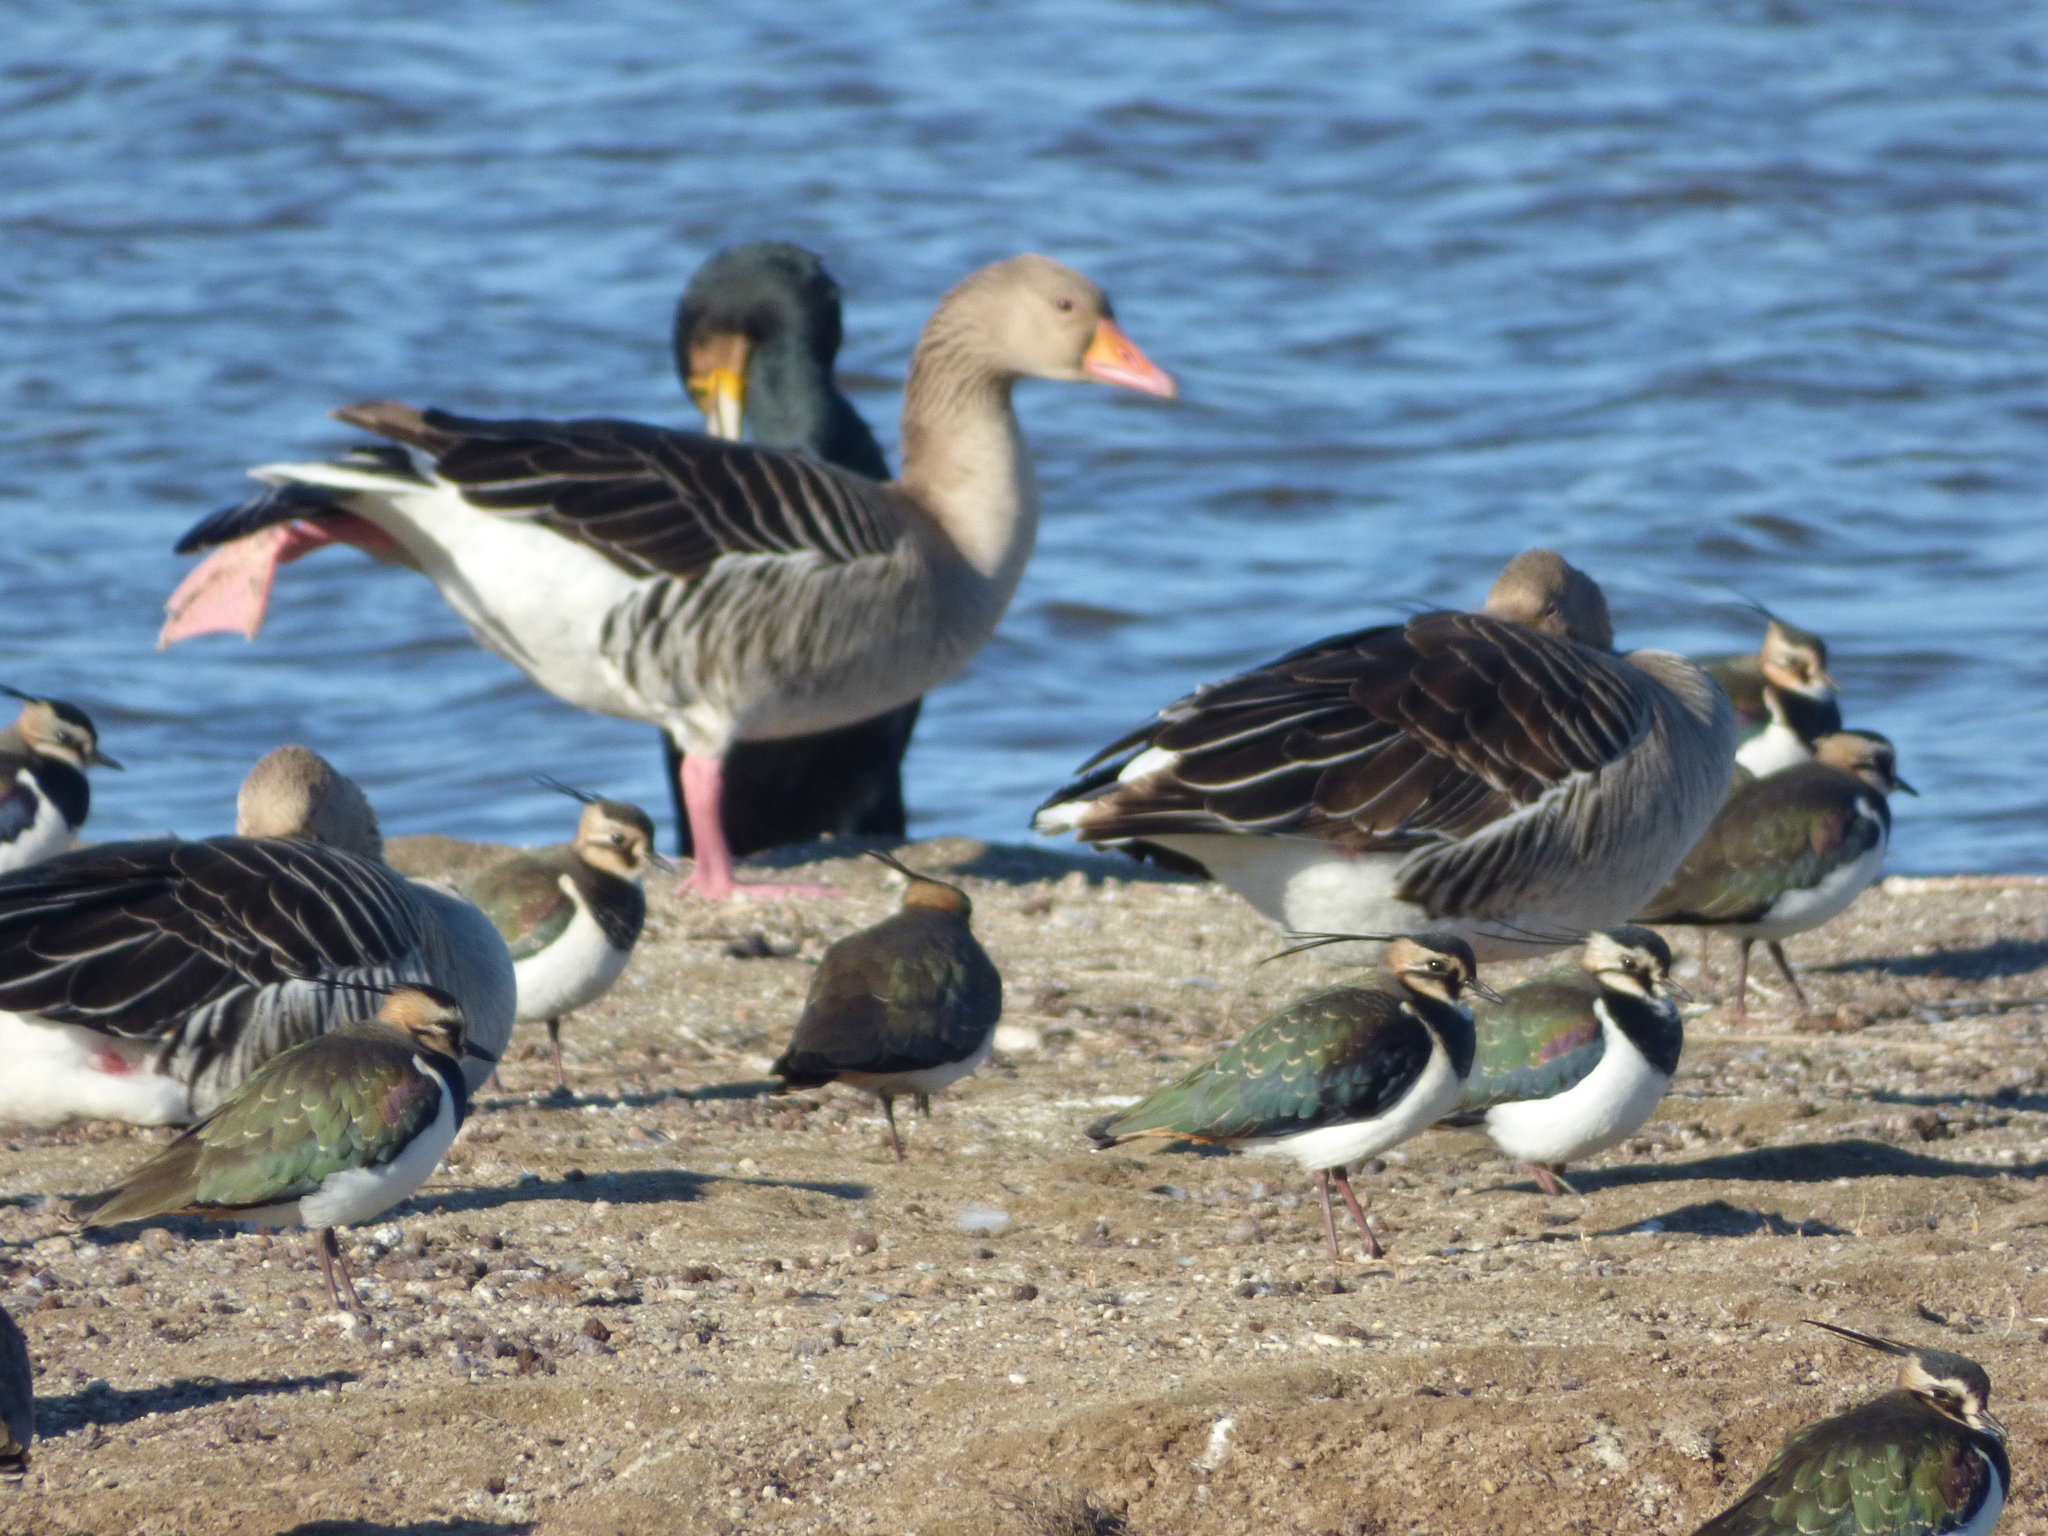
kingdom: Animalia
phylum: Chordata
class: Aves
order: Anseriformes
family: Anatidae
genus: Anser
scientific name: Anser anser
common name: Greylag goose
